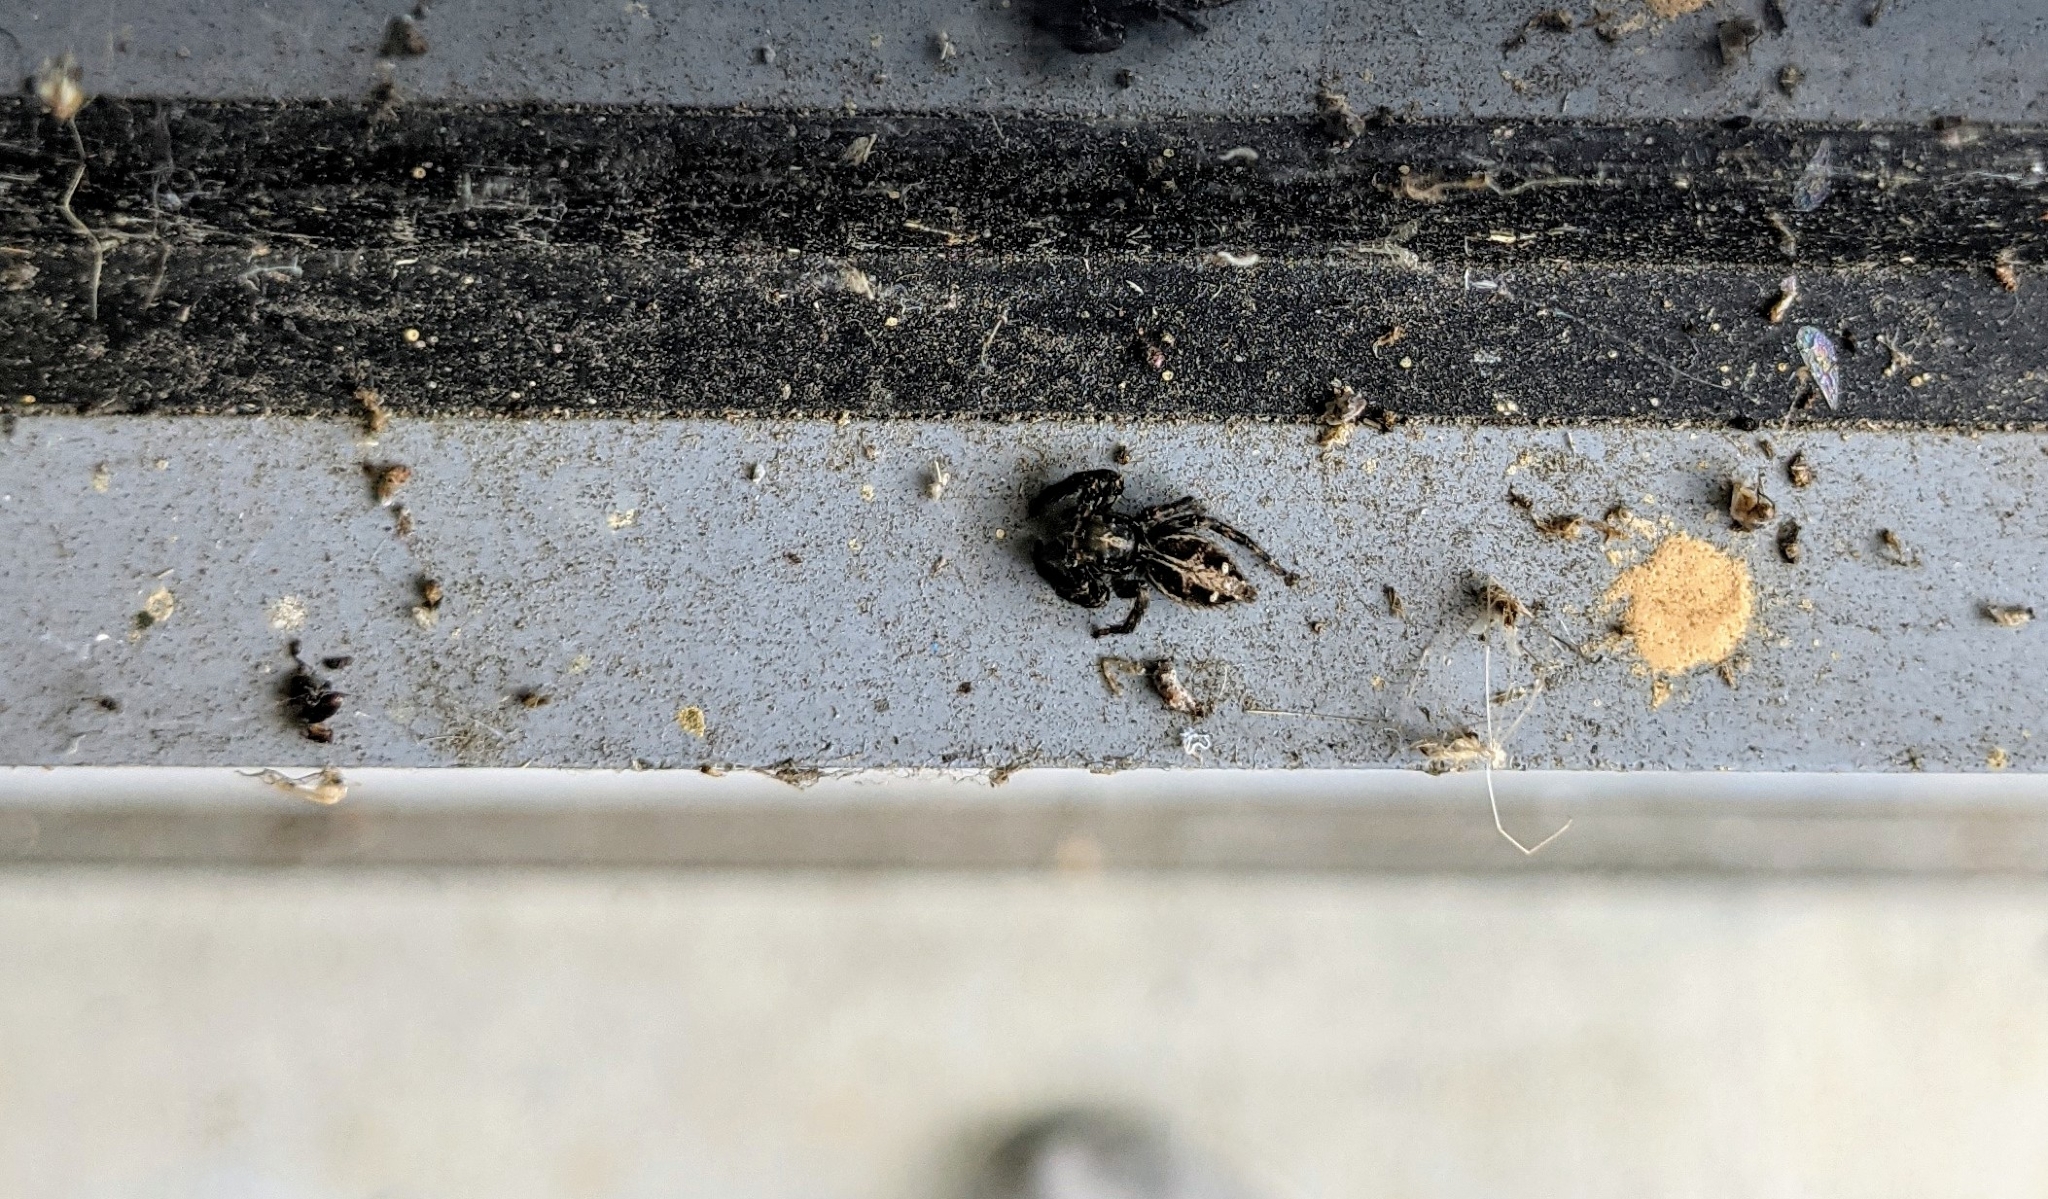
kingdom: Animalia
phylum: Arthropoda
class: Arachnida
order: Araneae
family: Salticidae
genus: Plexippus
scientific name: Plexippus paykulli
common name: Pantropical jumper
